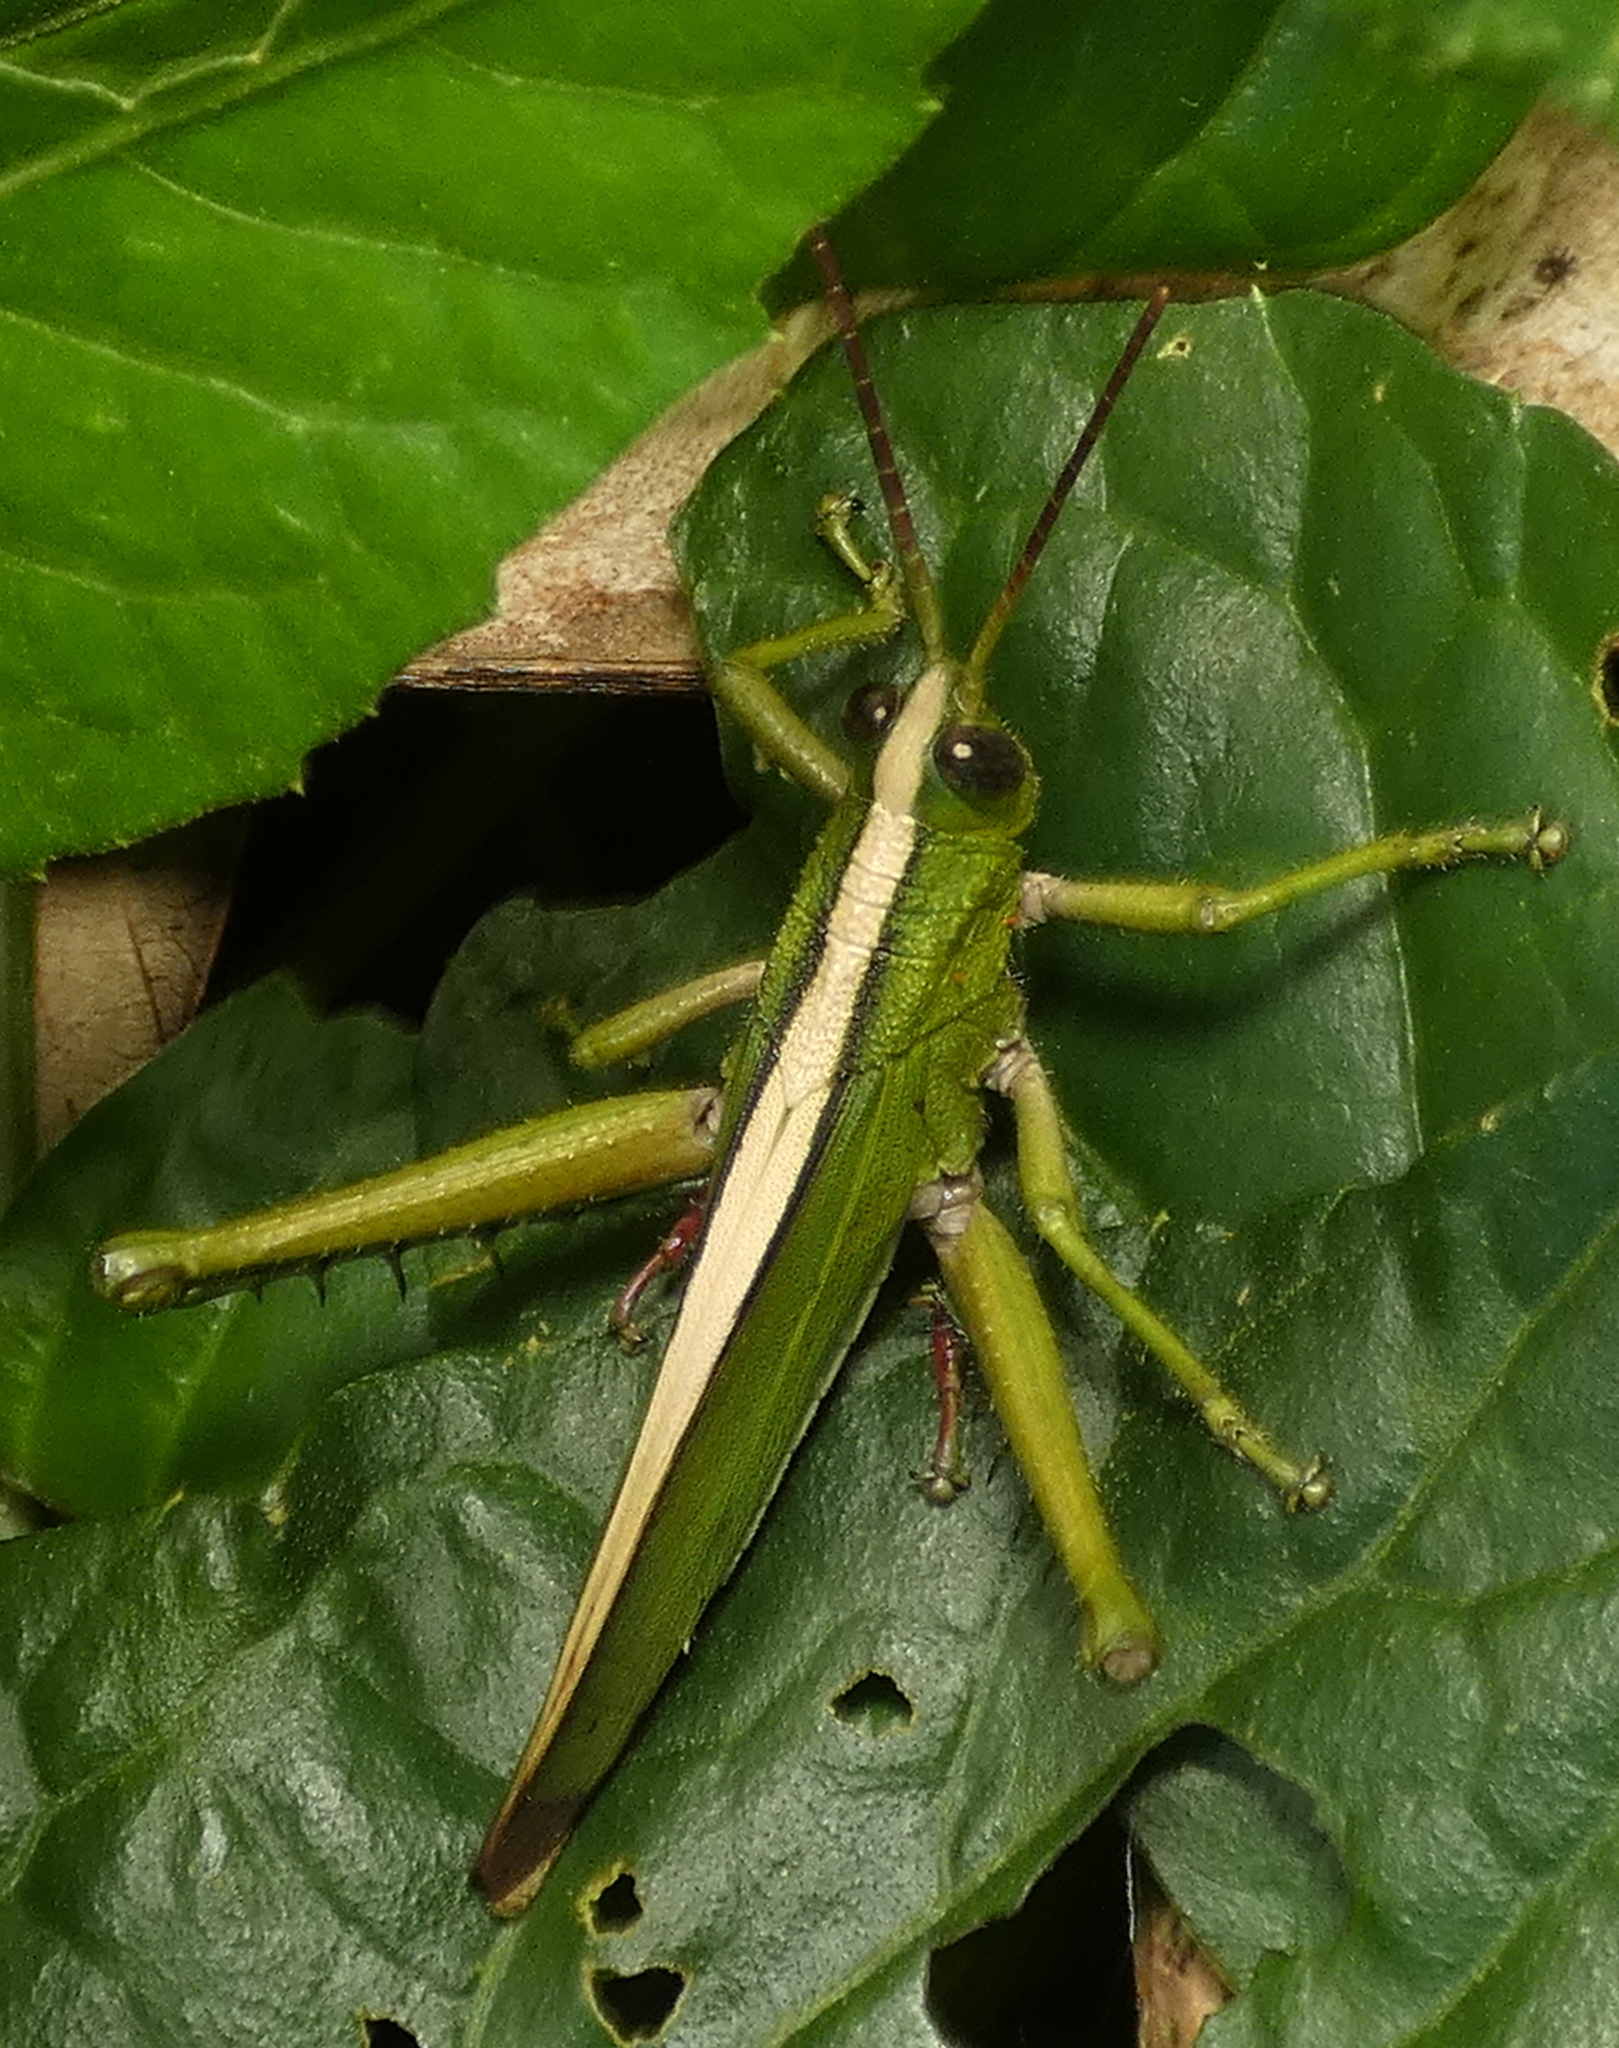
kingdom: Animalia
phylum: Arthropoda
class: Insecta
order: Orthoptera
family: Romaleidae
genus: Agriacris
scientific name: Agriacris auripennis
